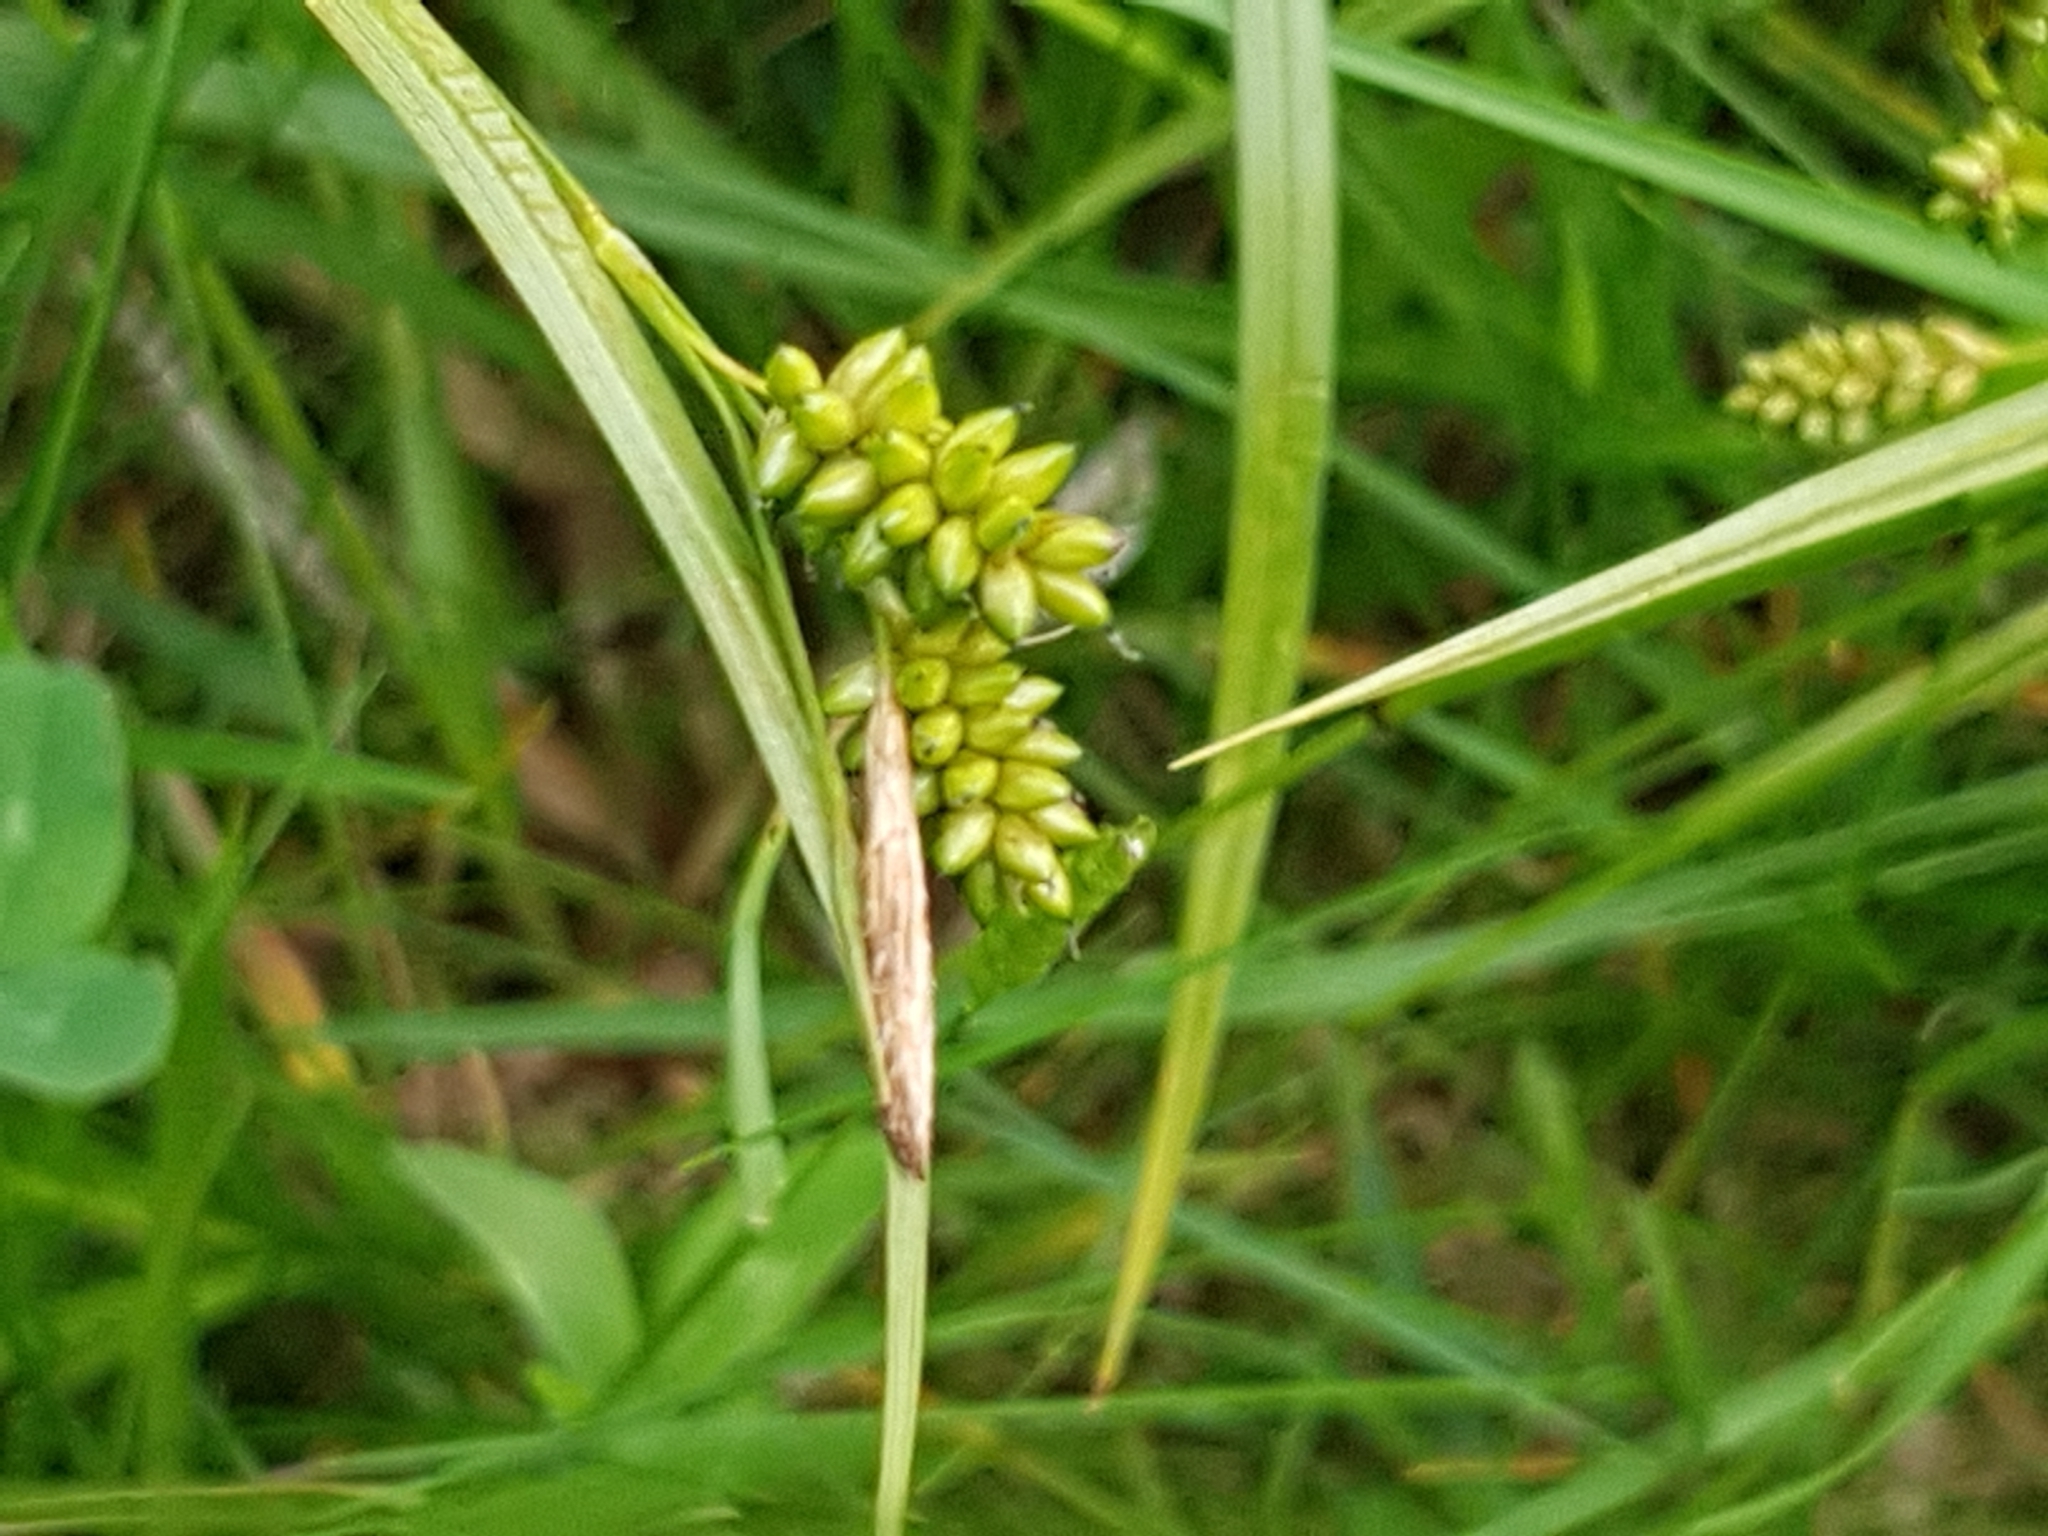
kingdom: Plantae
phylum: Tracheophyta
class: Liliopsida
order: Poales
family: Cyperaceae
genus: Carex
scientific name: Carex pallescens
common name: Pale sedge
